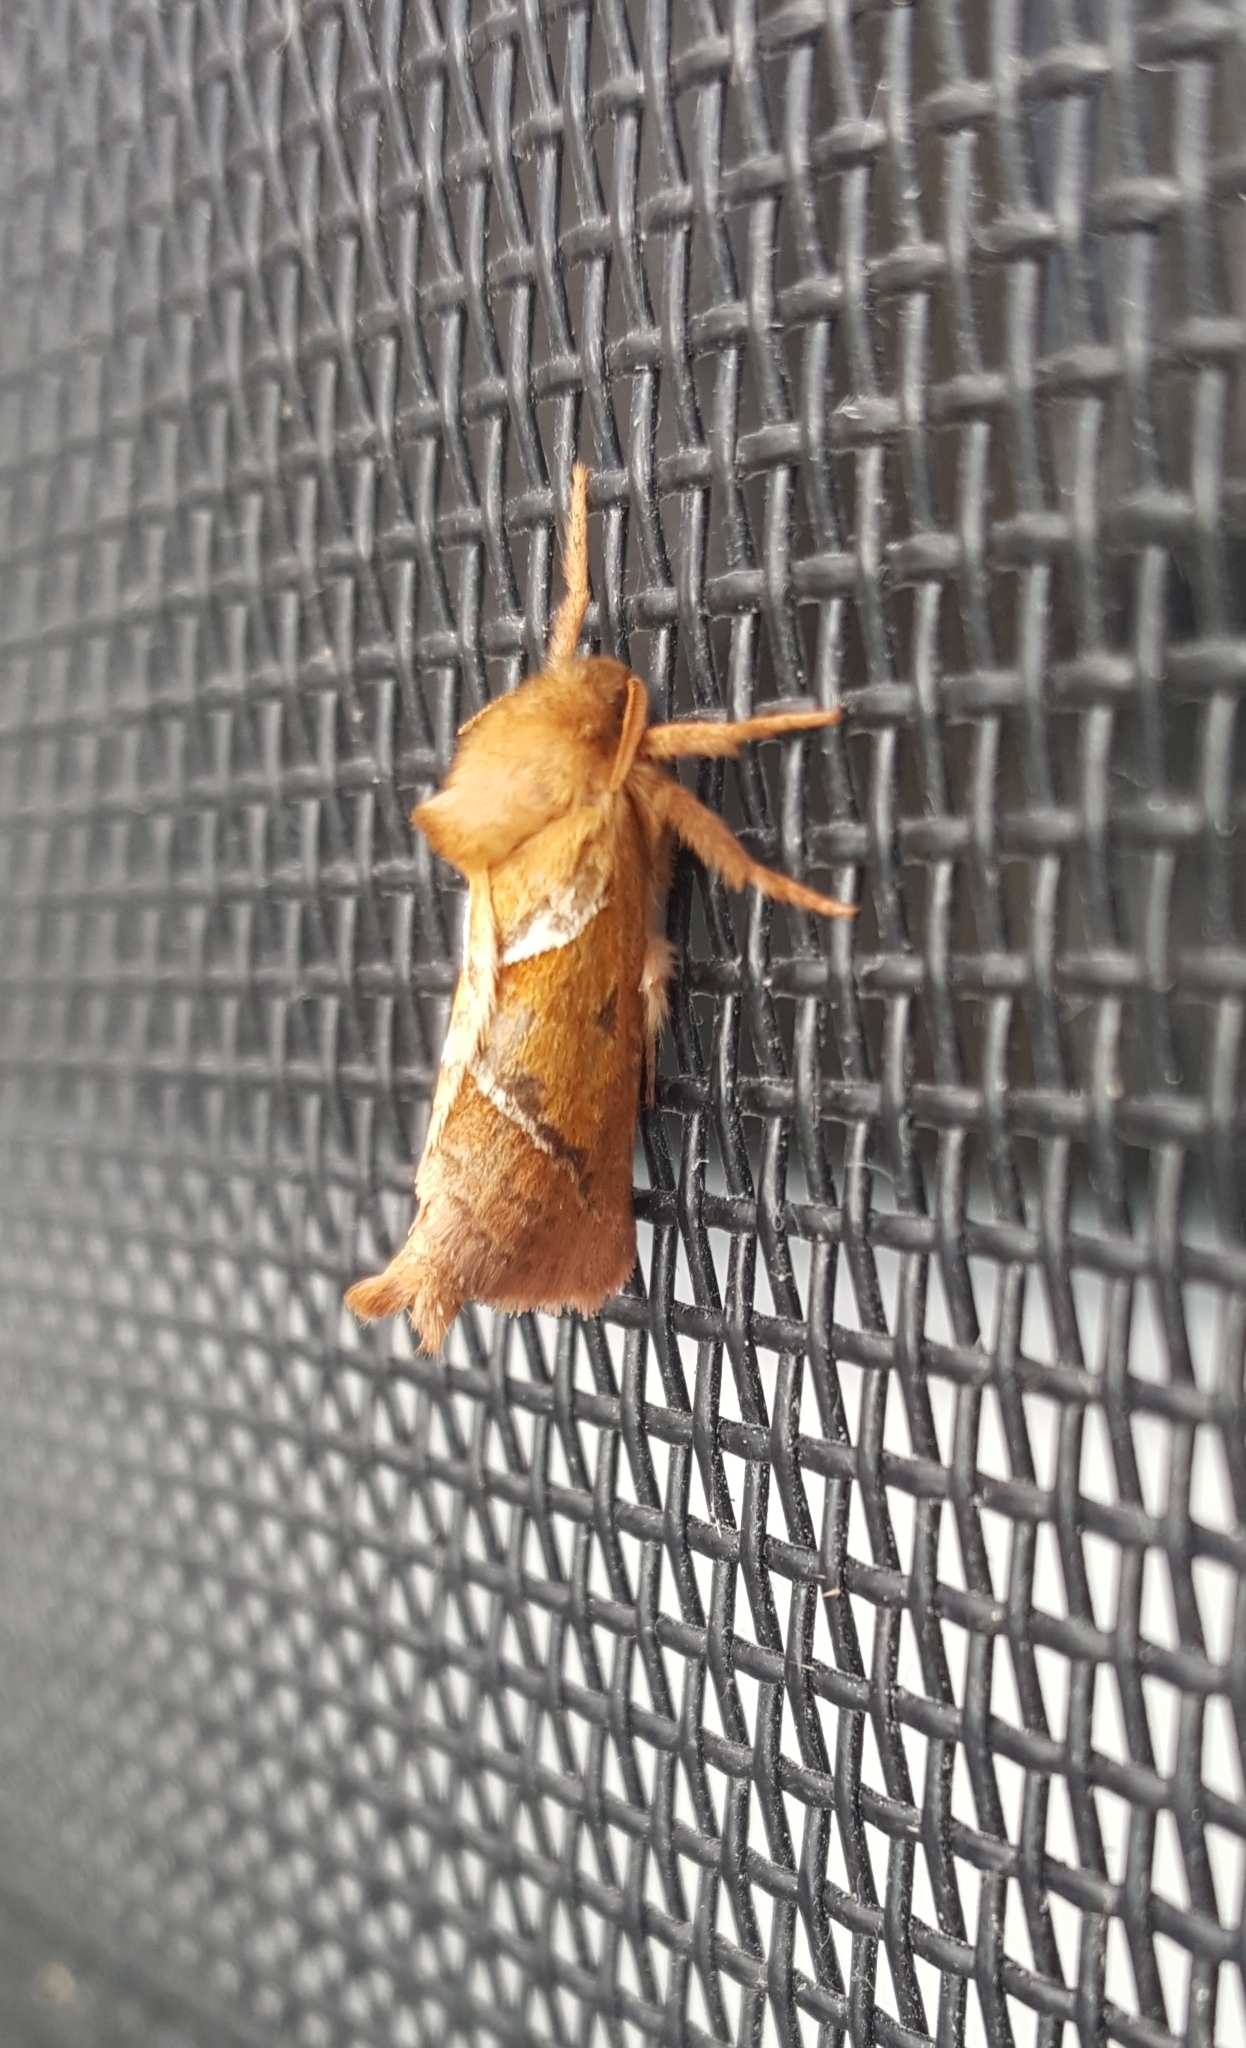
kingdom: Animalia
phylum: Arthropoda
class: Insecta
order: Lepidoptera
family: Hepialidae
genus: Triodia
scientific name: Triodia sylvina
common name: Orange swift
